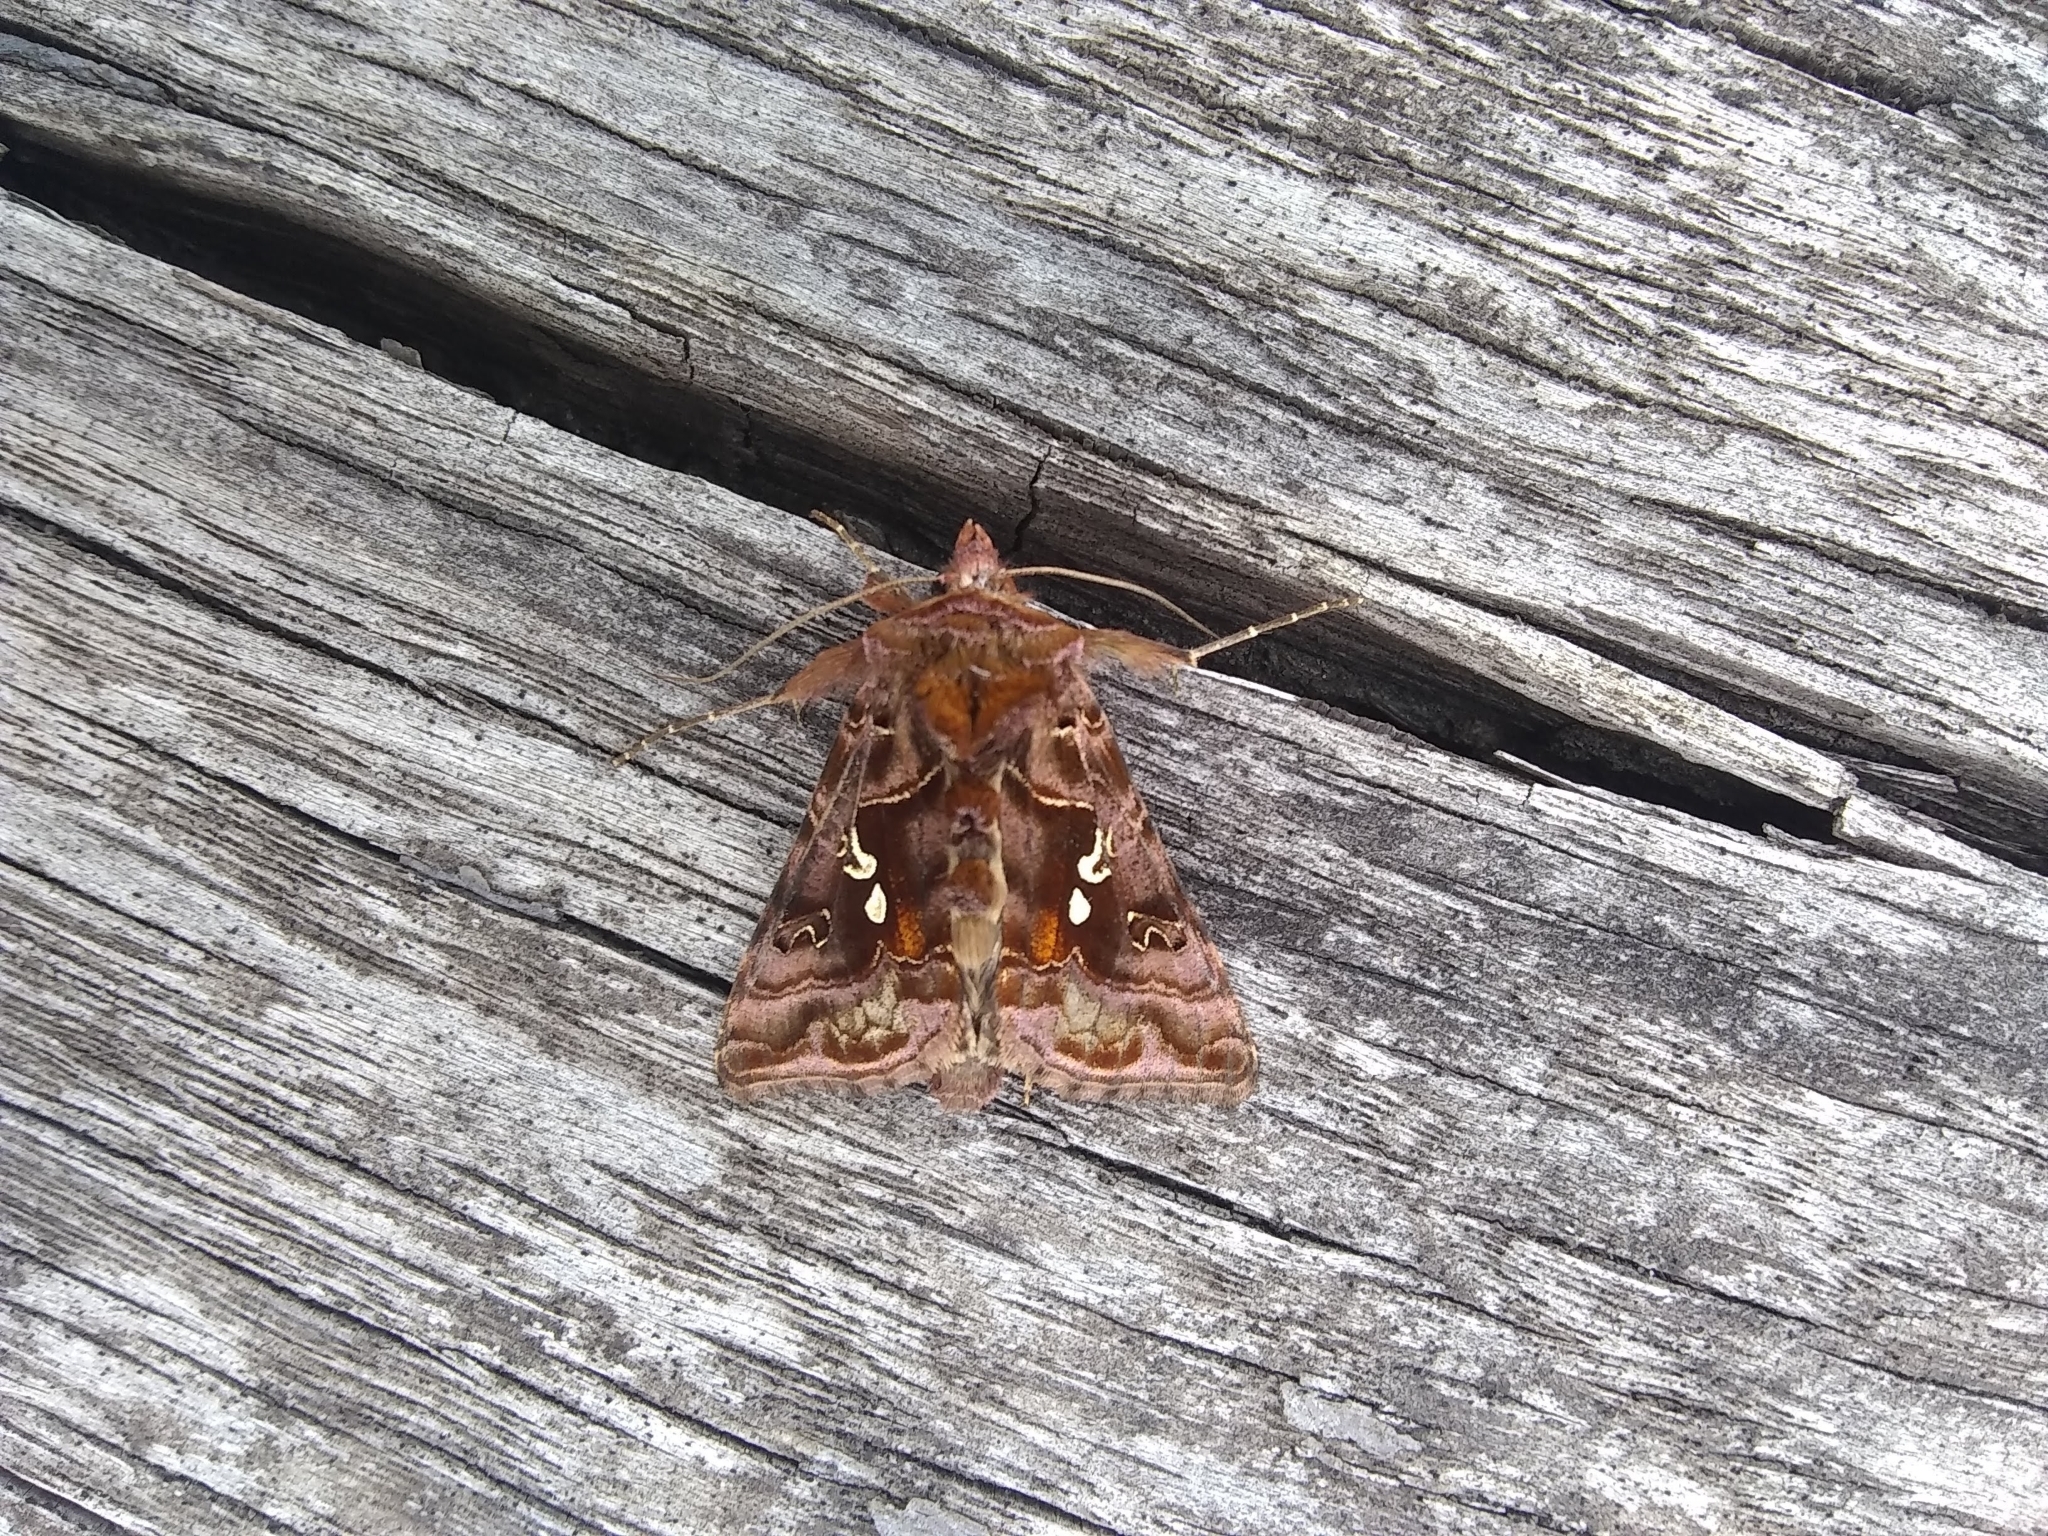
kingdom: Animalia
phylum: Arthropoda
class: Insecta
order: Lepidoptera
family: Noctuidae
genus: Autographa
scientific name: Autographa pulchrina
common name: Beautiful golden y
